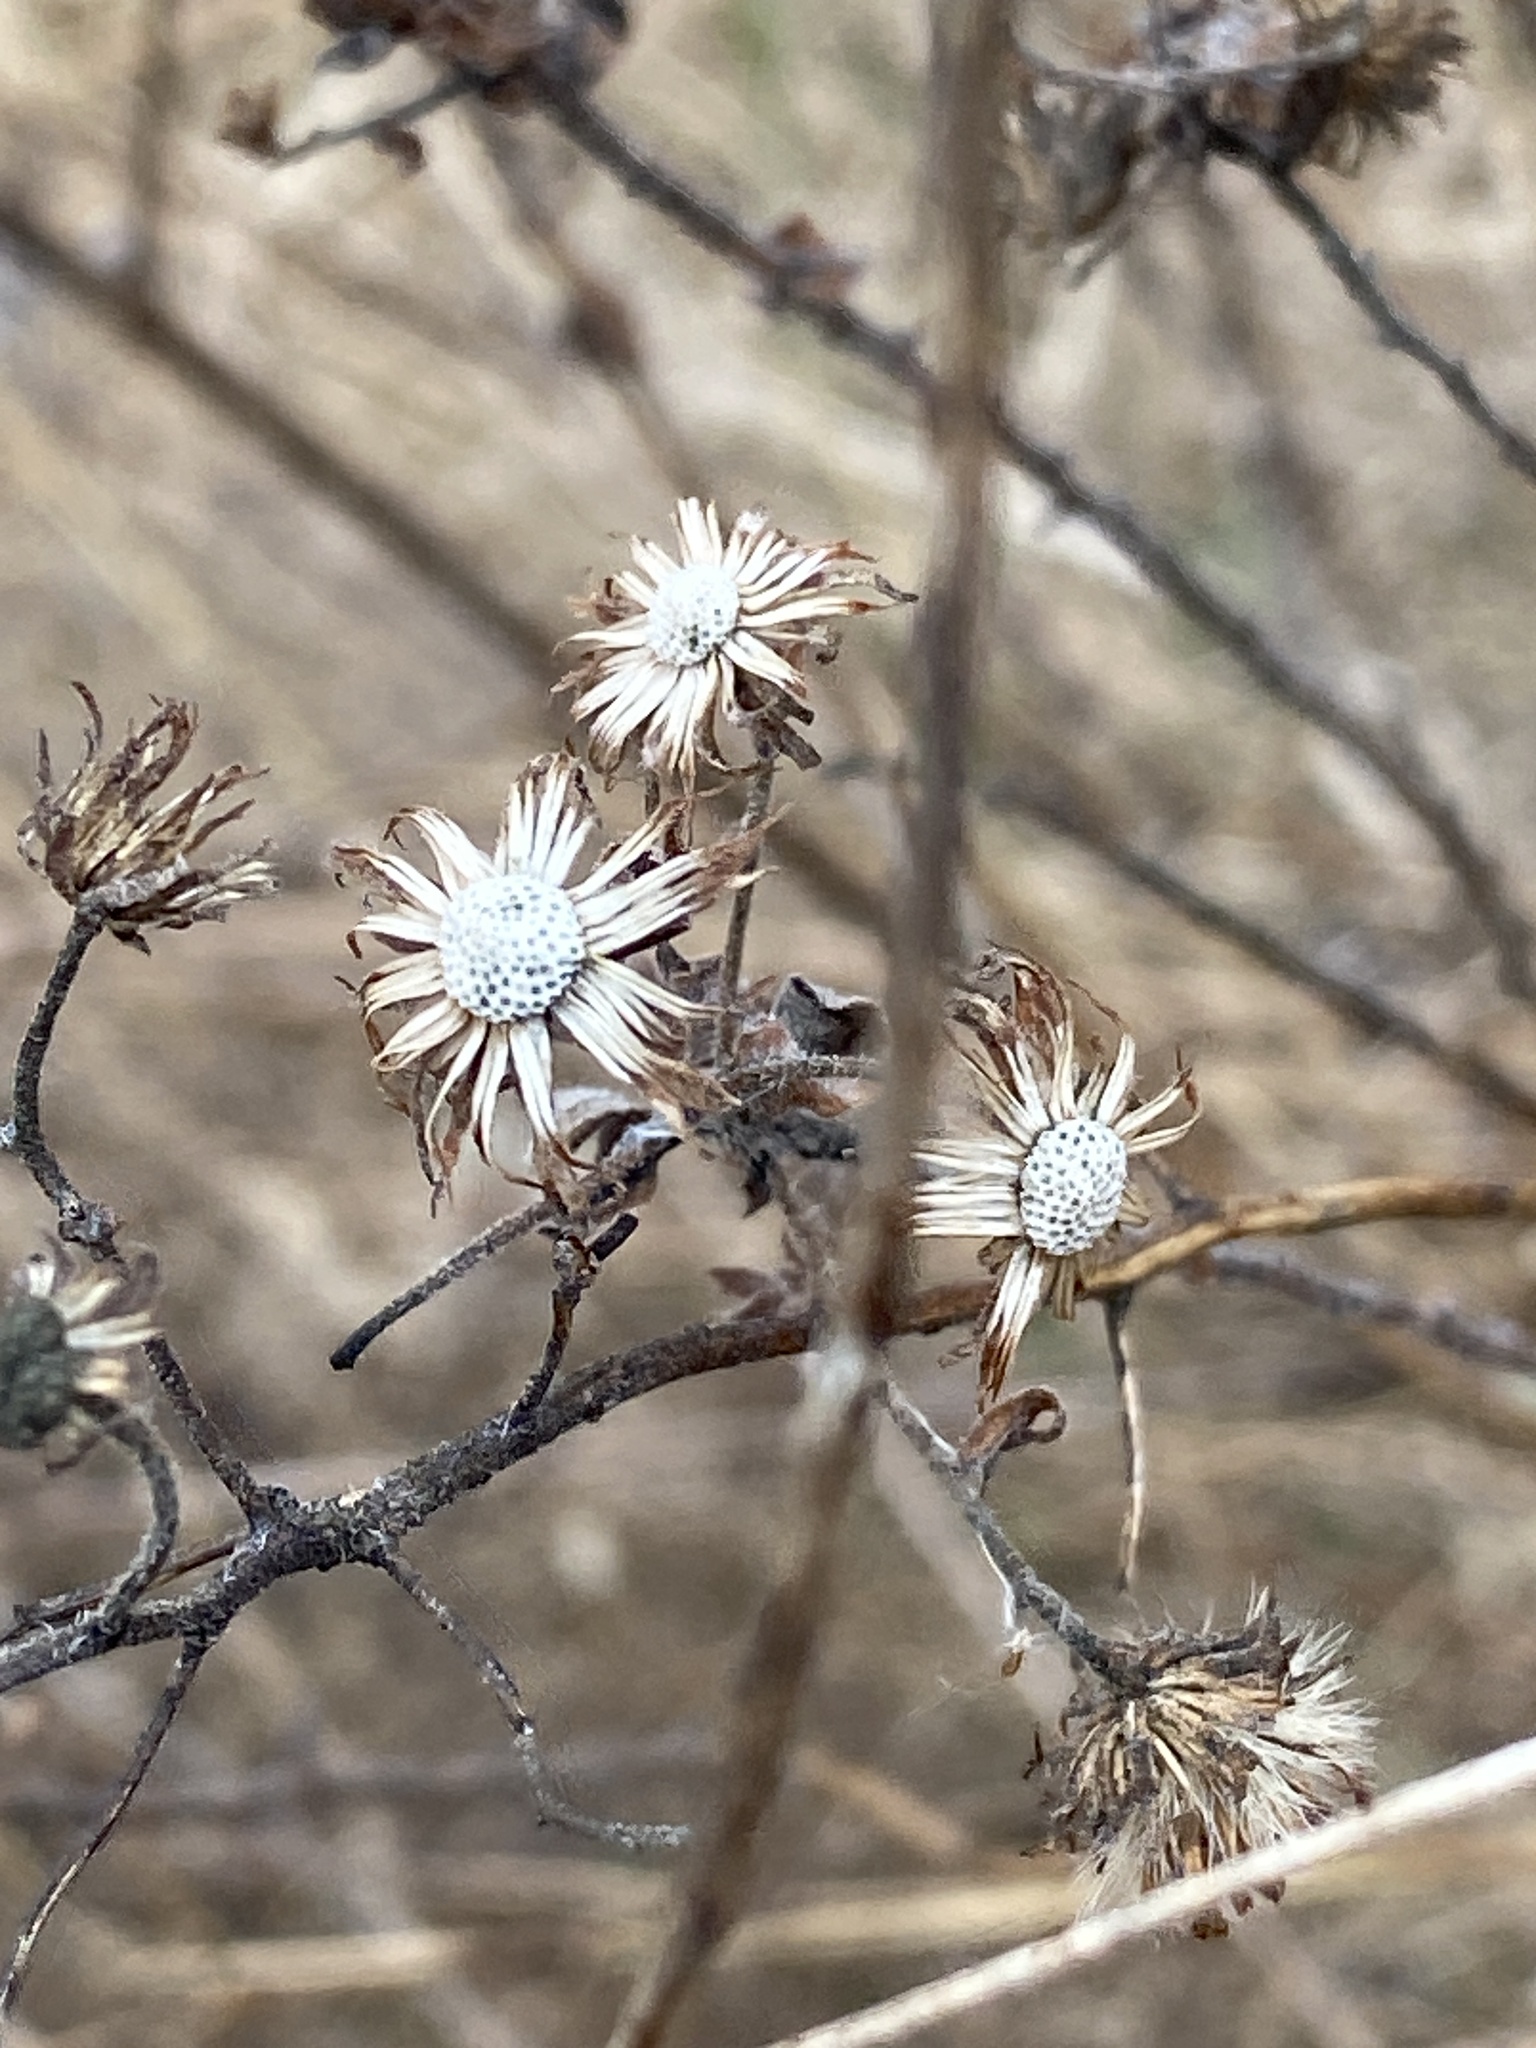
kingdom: Plantae
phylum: Tracheophyta
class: Magnoliopsida
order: Asterales
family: Asteraceae
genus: Symphyotrichum
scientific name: Symphyotrichum novae-angliae
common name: Michaelmas daisy
